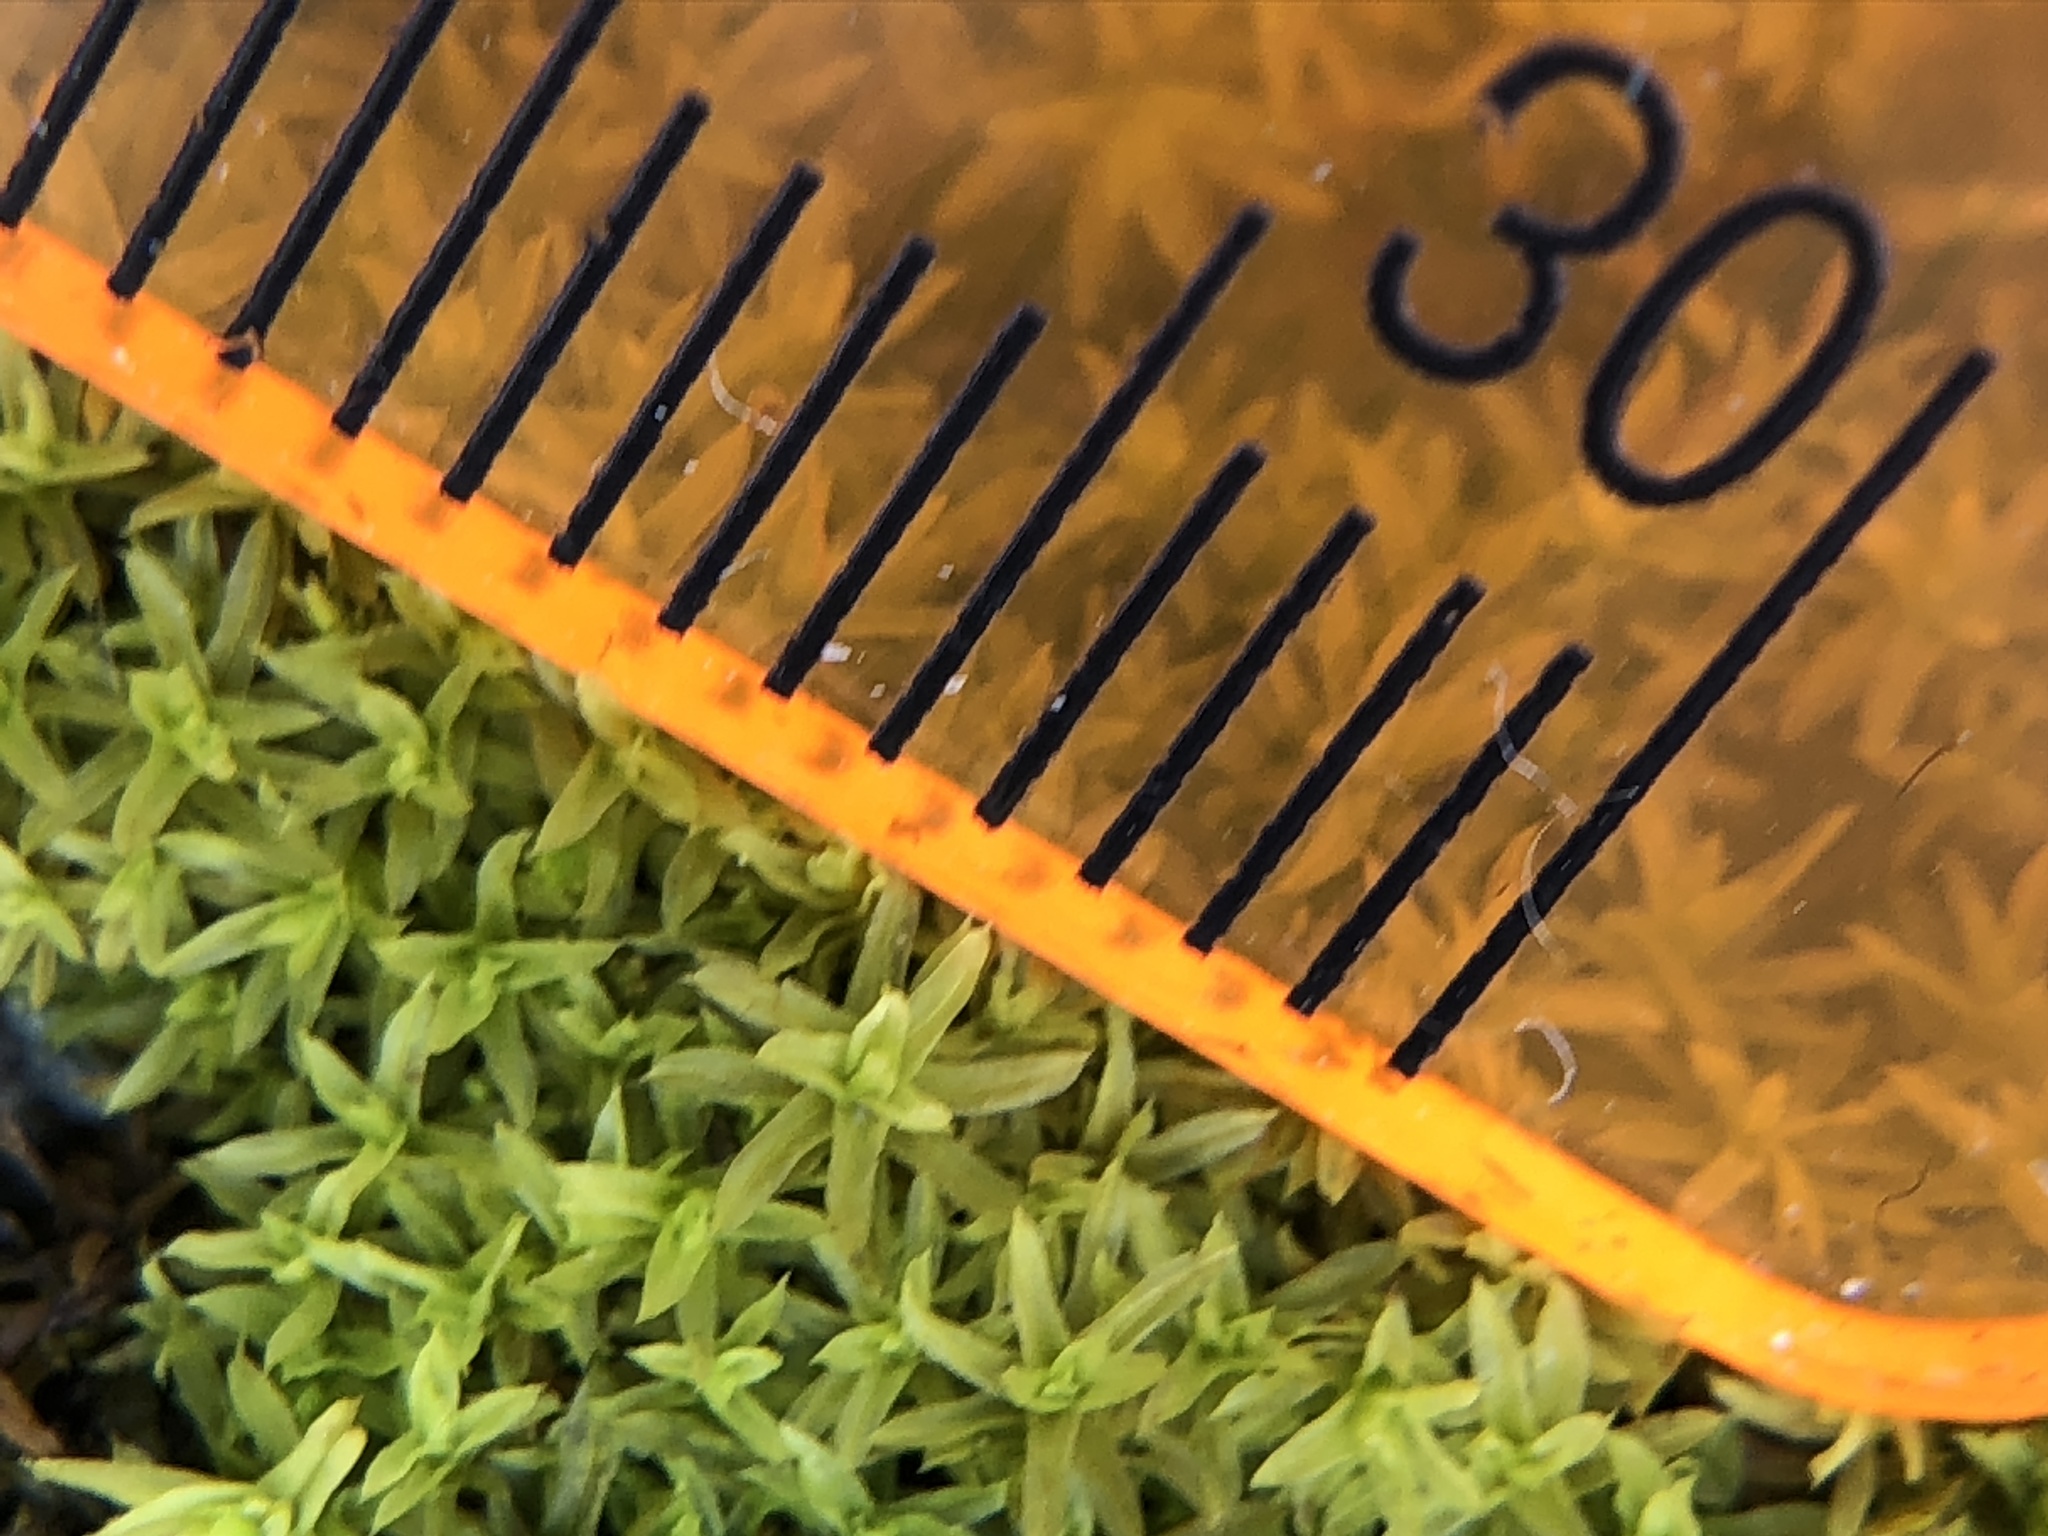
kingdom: Plantae
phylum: Bryophyta
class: Bryopsida
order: Pottiales
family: Pottiaceae
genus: Barbula
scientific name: Barbula unguiculata
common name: Prickly beard moss
